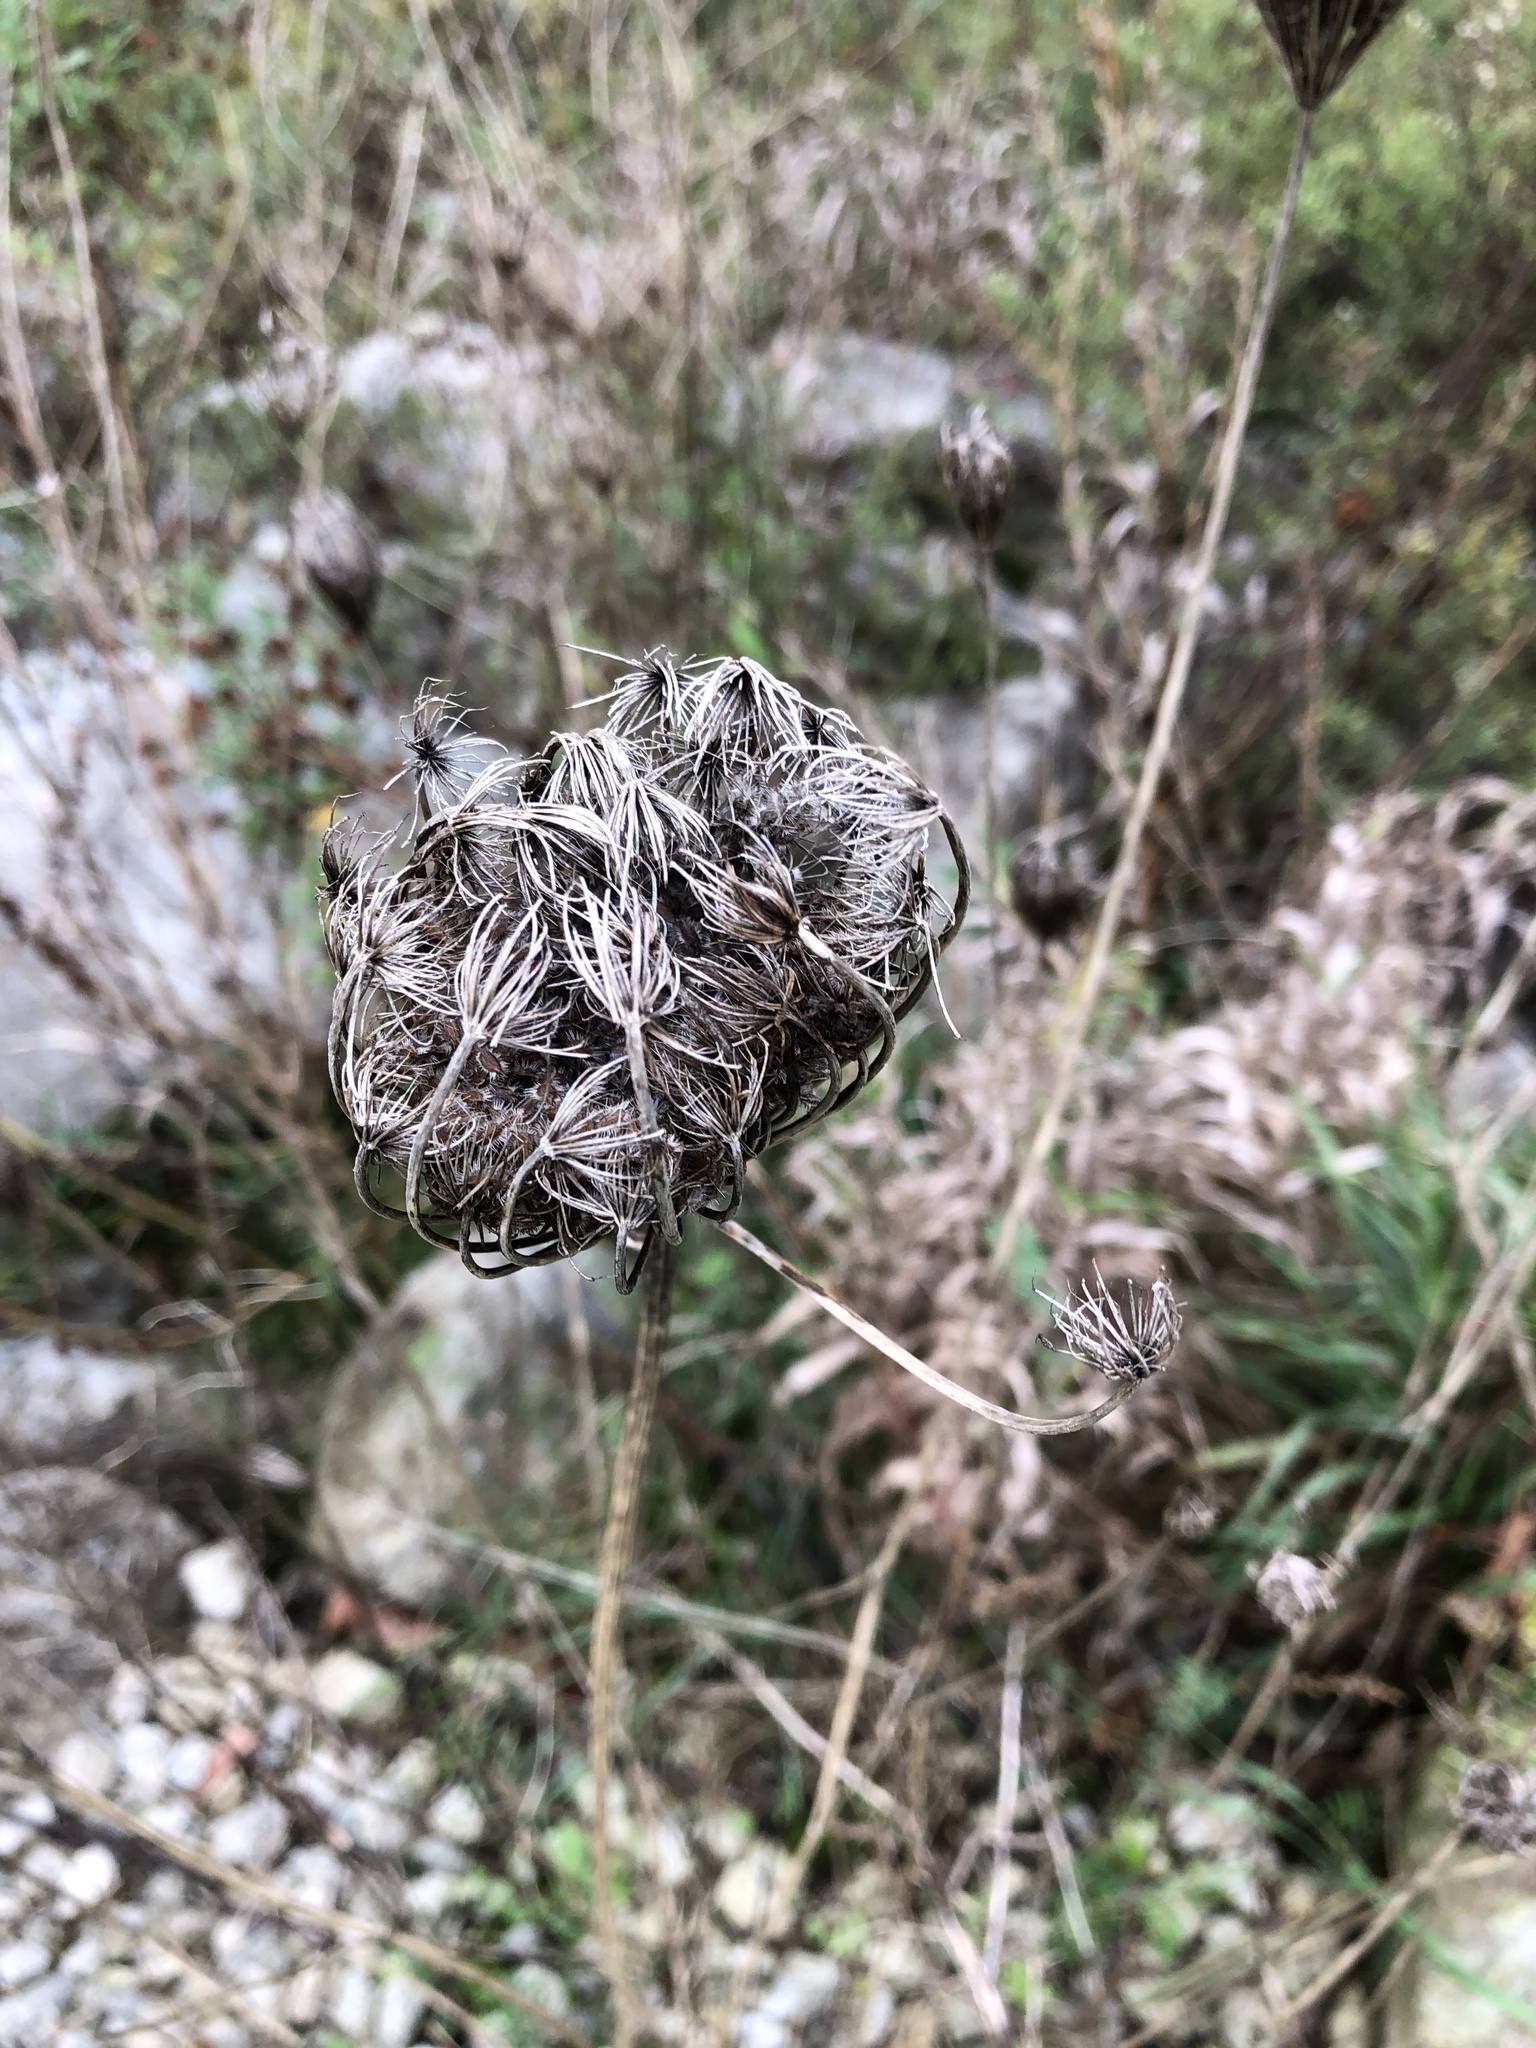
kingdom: Plantae
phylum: Tracheophyta
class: Magnoliopsida
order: Apiales
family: Apiaceae
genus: Daucus
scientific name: Daucus carota
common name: Wild carrot
